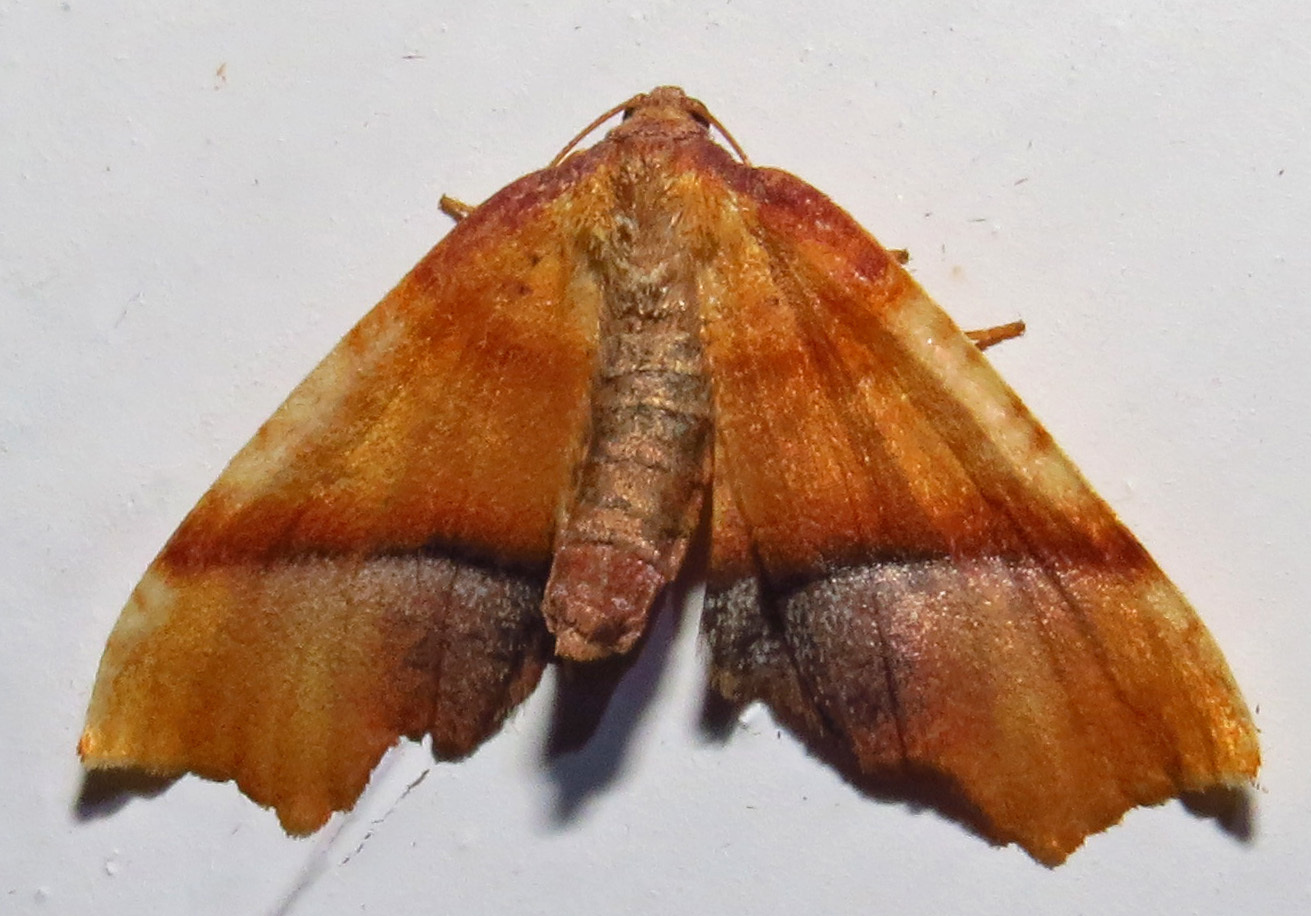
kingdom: Animalia
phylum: Arthropoda
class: Insecta
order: Lepidoptera
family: Geometridae
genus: Plagodis
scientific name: Plagodis phlogosaria
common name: Straight-lined plagodis
